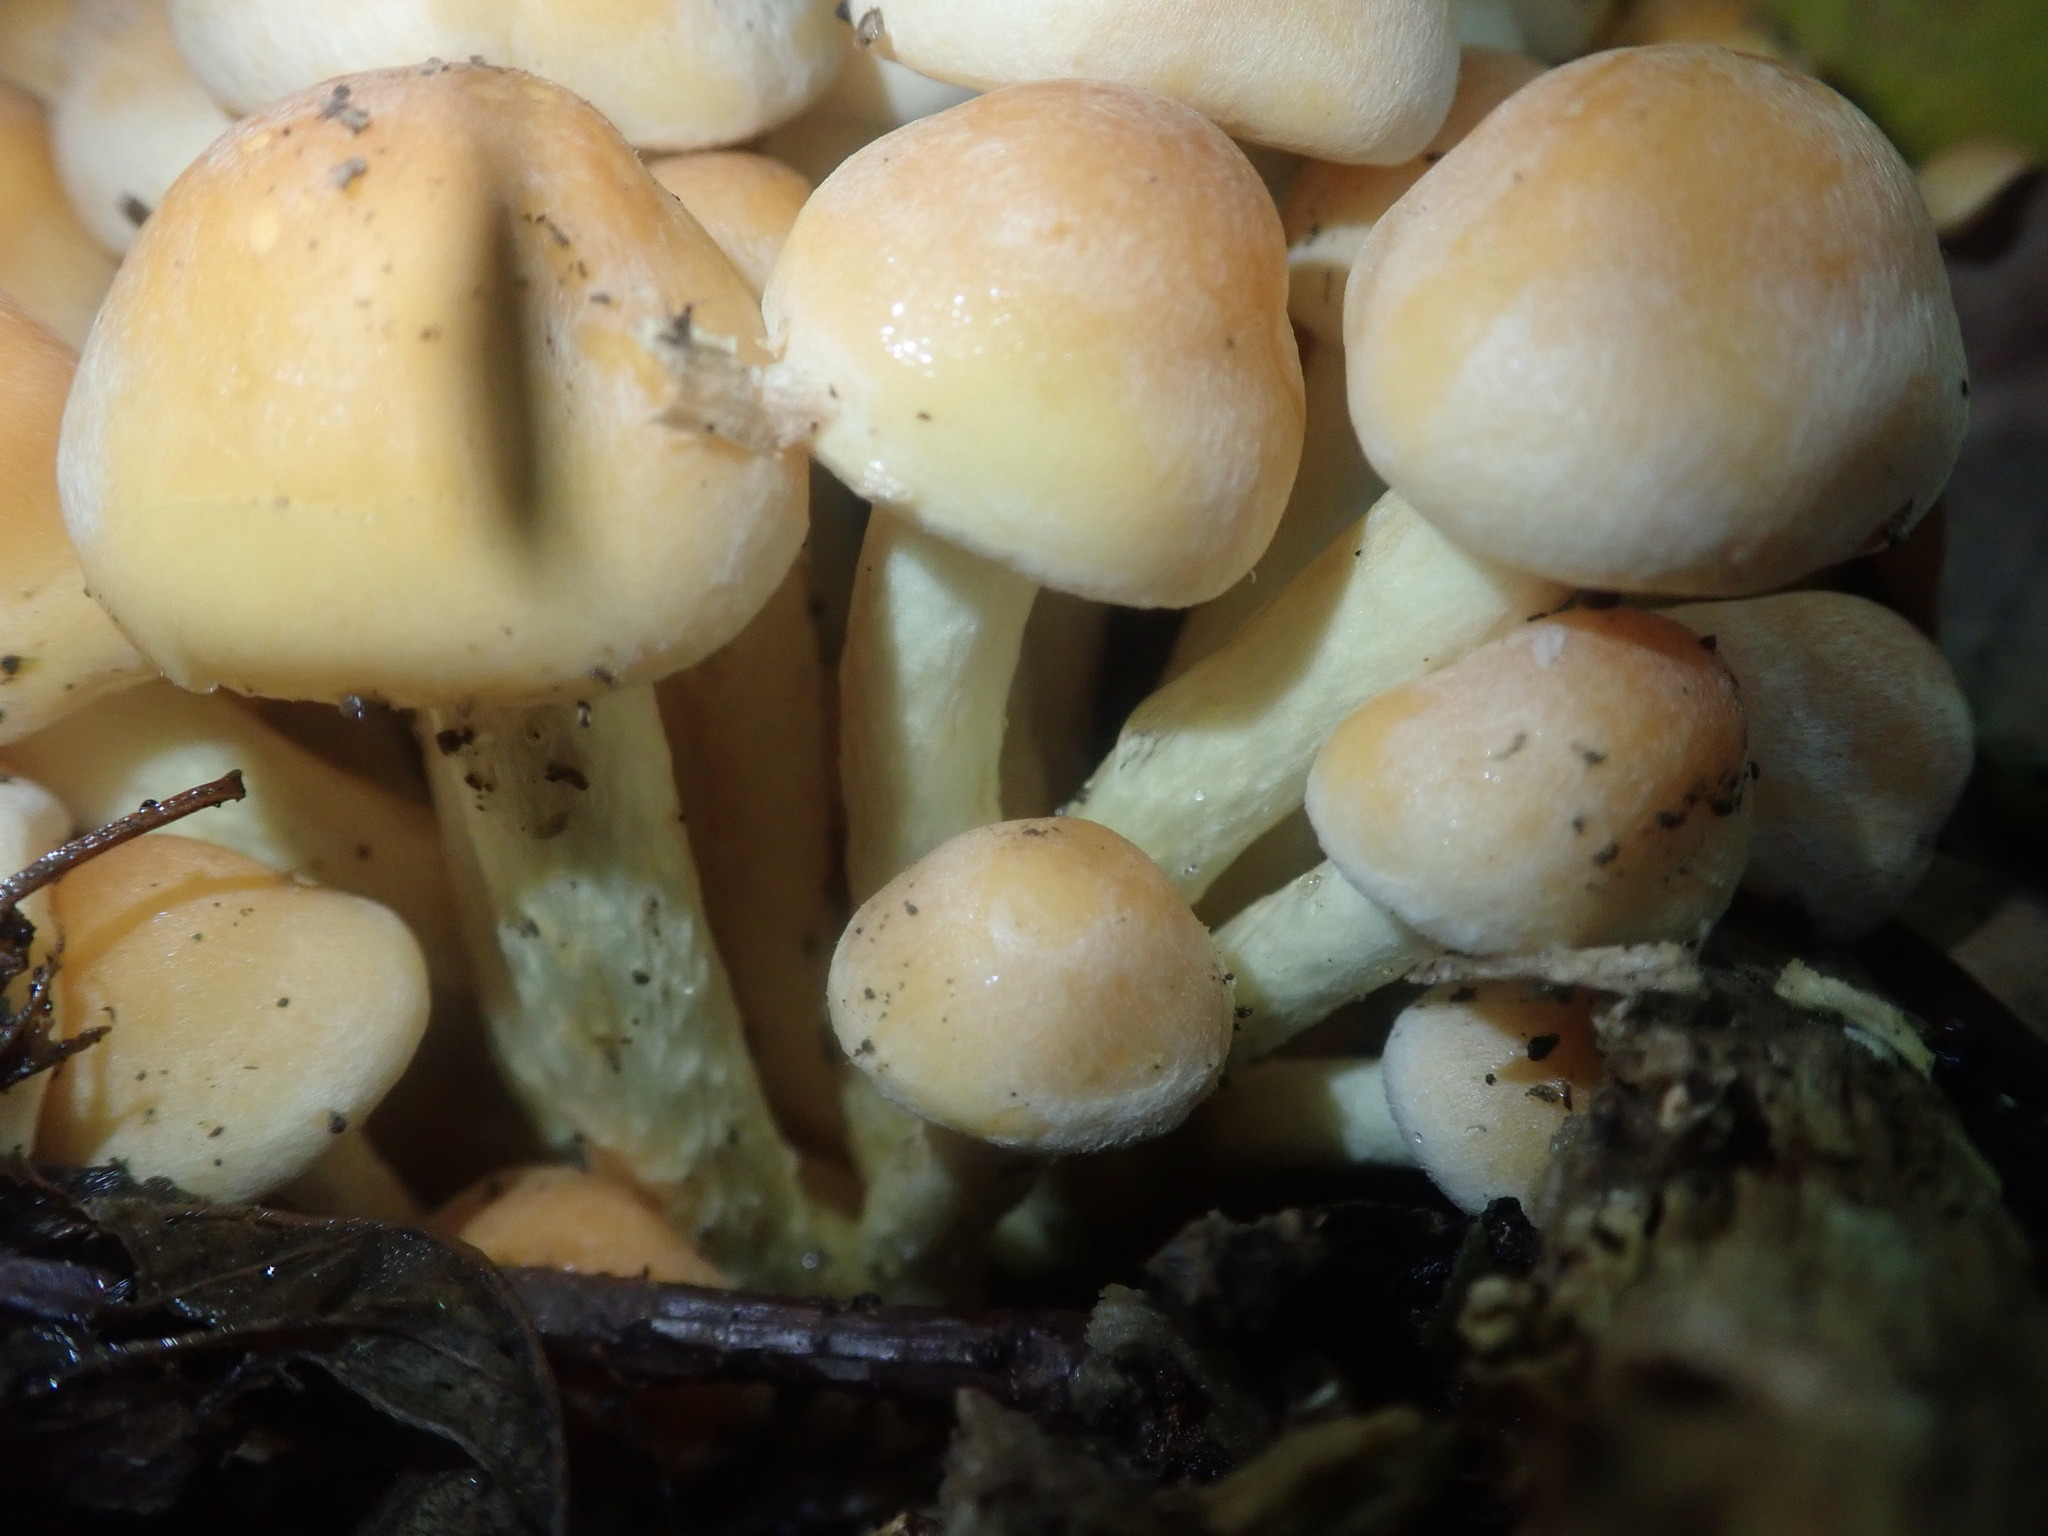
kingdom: Fungi
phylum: Basidiomycota
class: Agaricomycetes
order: Agaricales
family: Strophariaceae
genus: Hypholoma
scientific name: Hypholoma fasciculare
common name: Sulphur tuft
